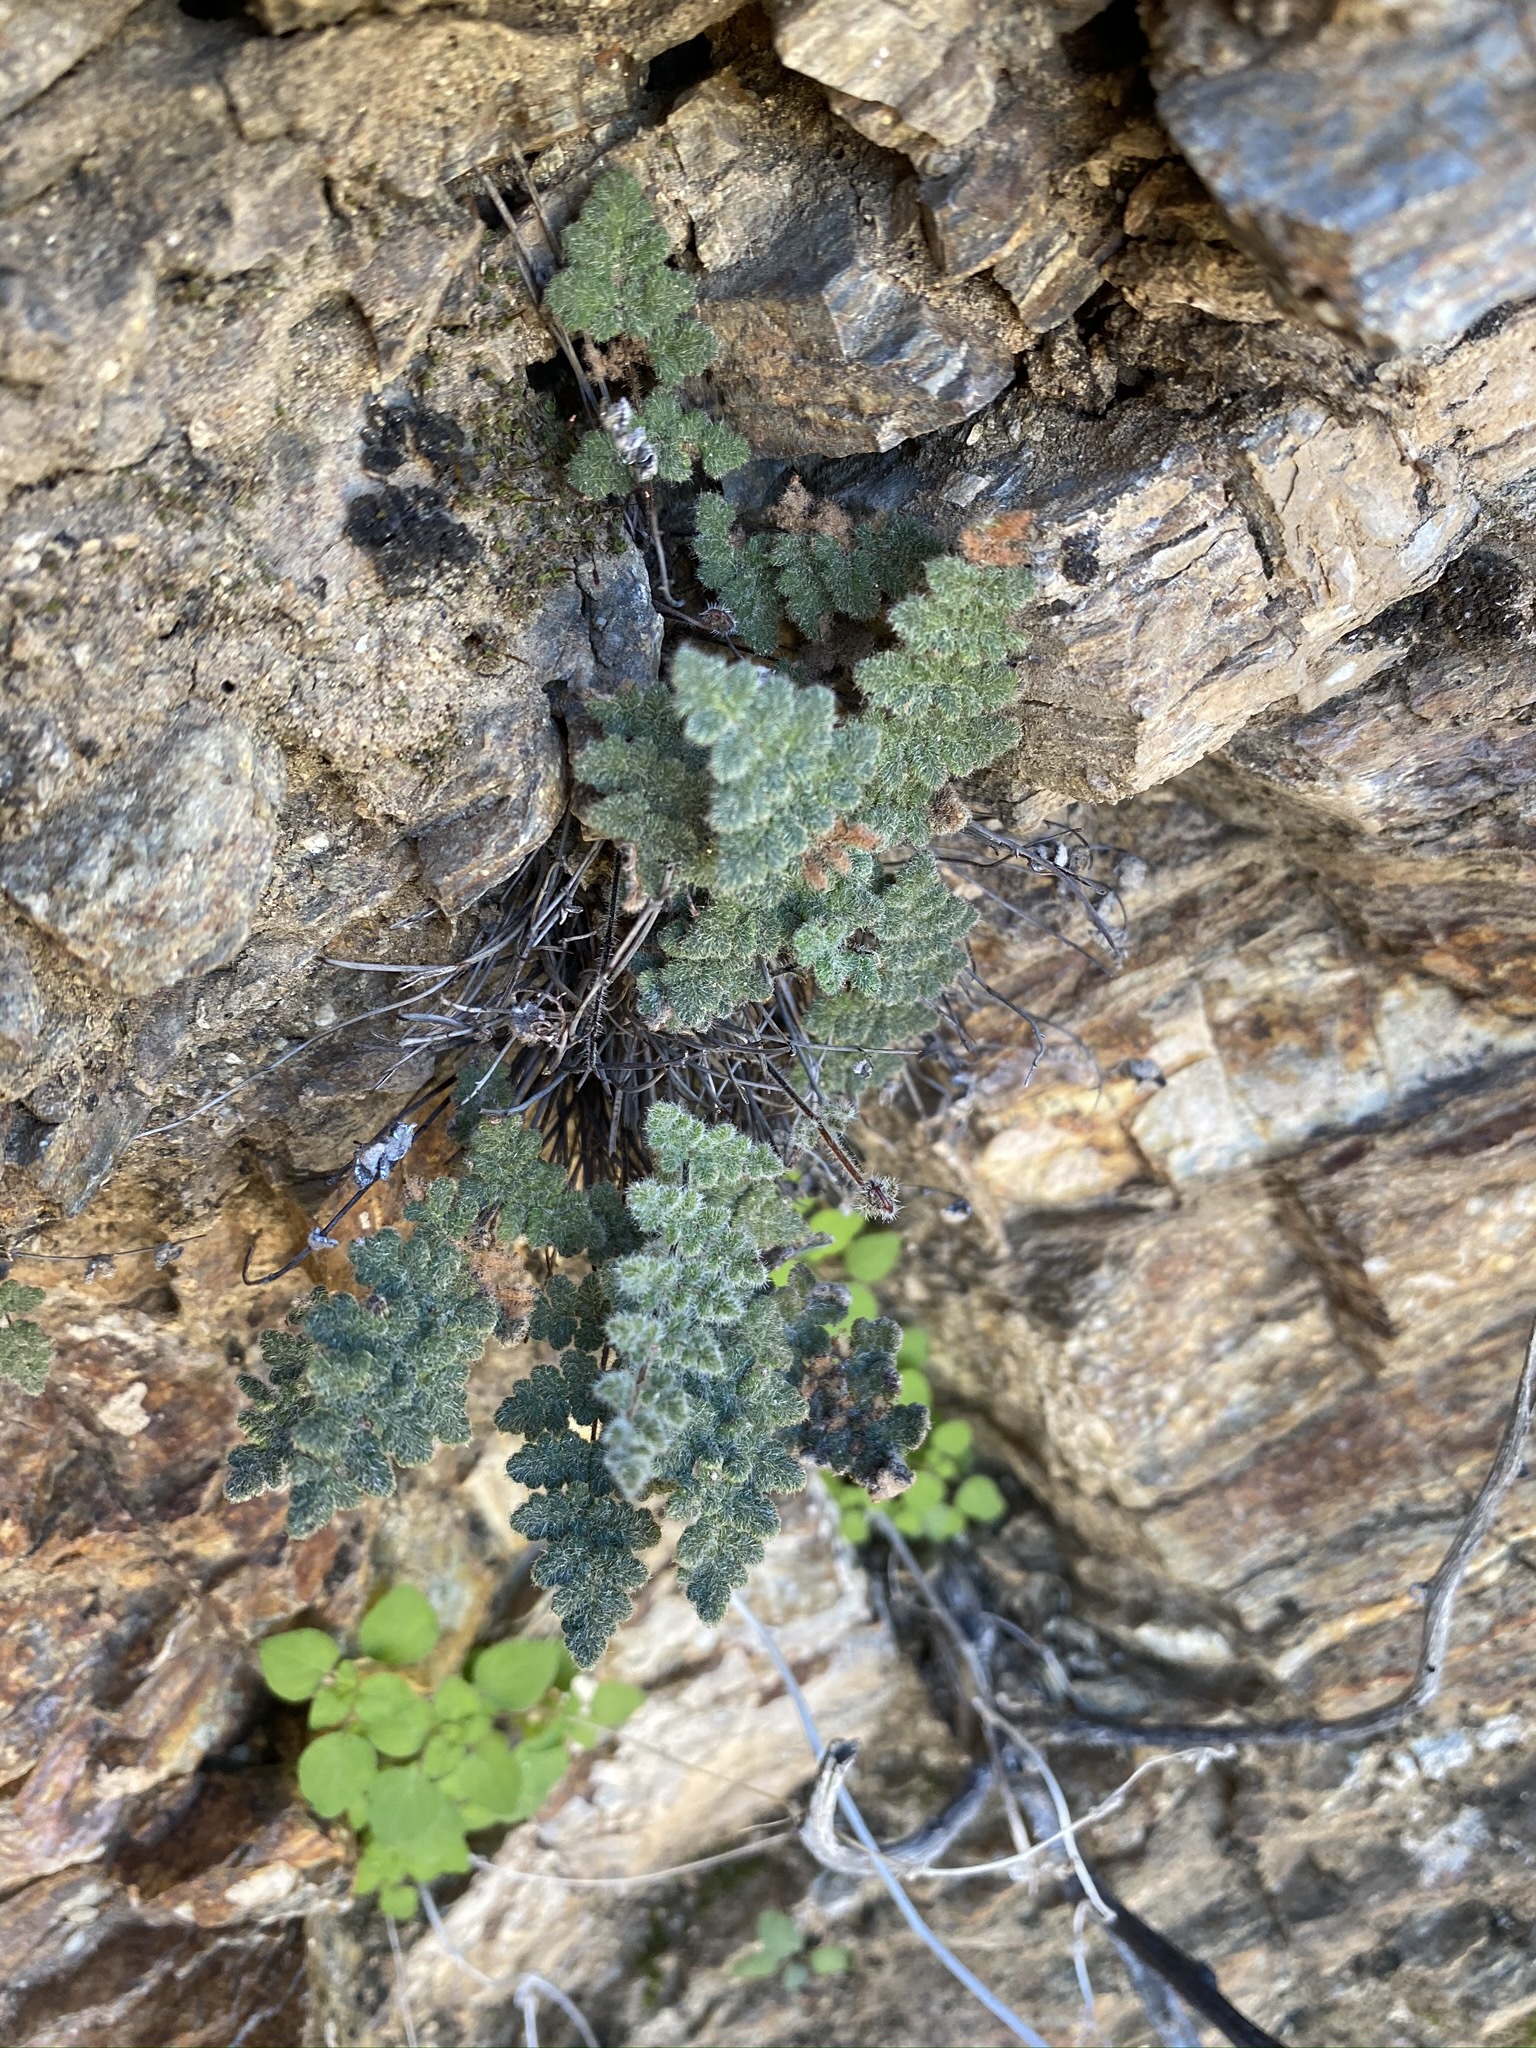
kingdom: Plantae
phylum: Tracheophyta
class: Polypodiopsida
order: Polypodiales
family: Pteridaceae
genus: Myriopteris
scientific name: Myriopteris parryi
